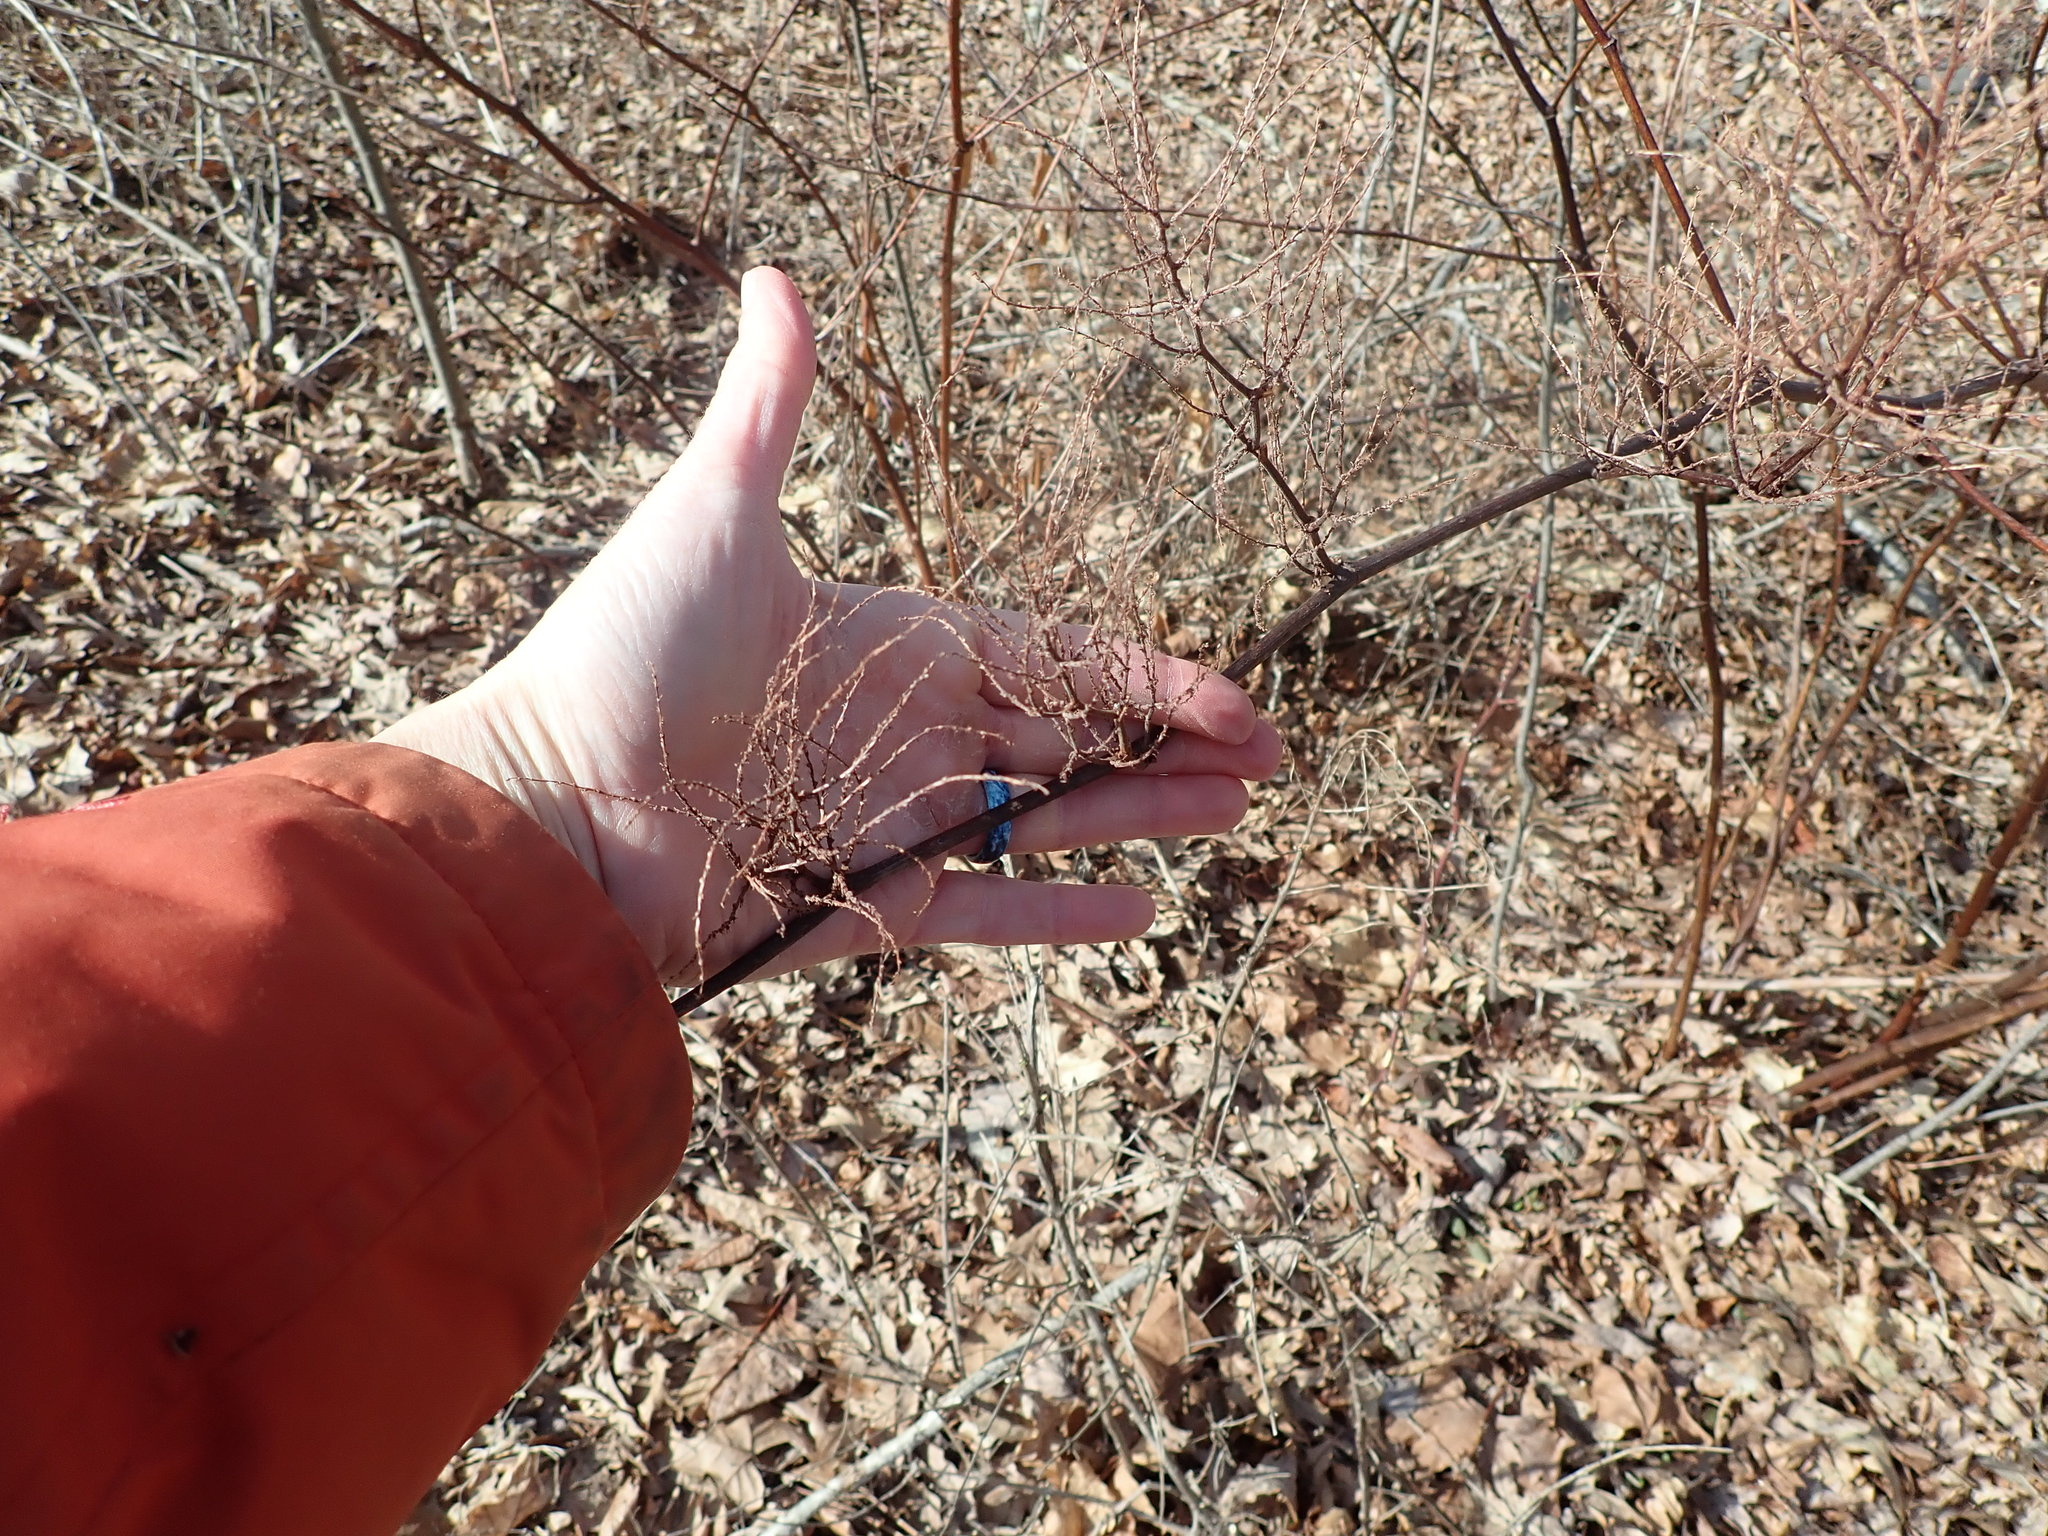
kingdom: Plantae
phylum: Tracheophyta
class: Magnoliopsida
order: Caryophyllales
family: Polygonaceae
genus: Reynoutria
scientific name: Reynoutria japonica
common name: Japanese knotweed
